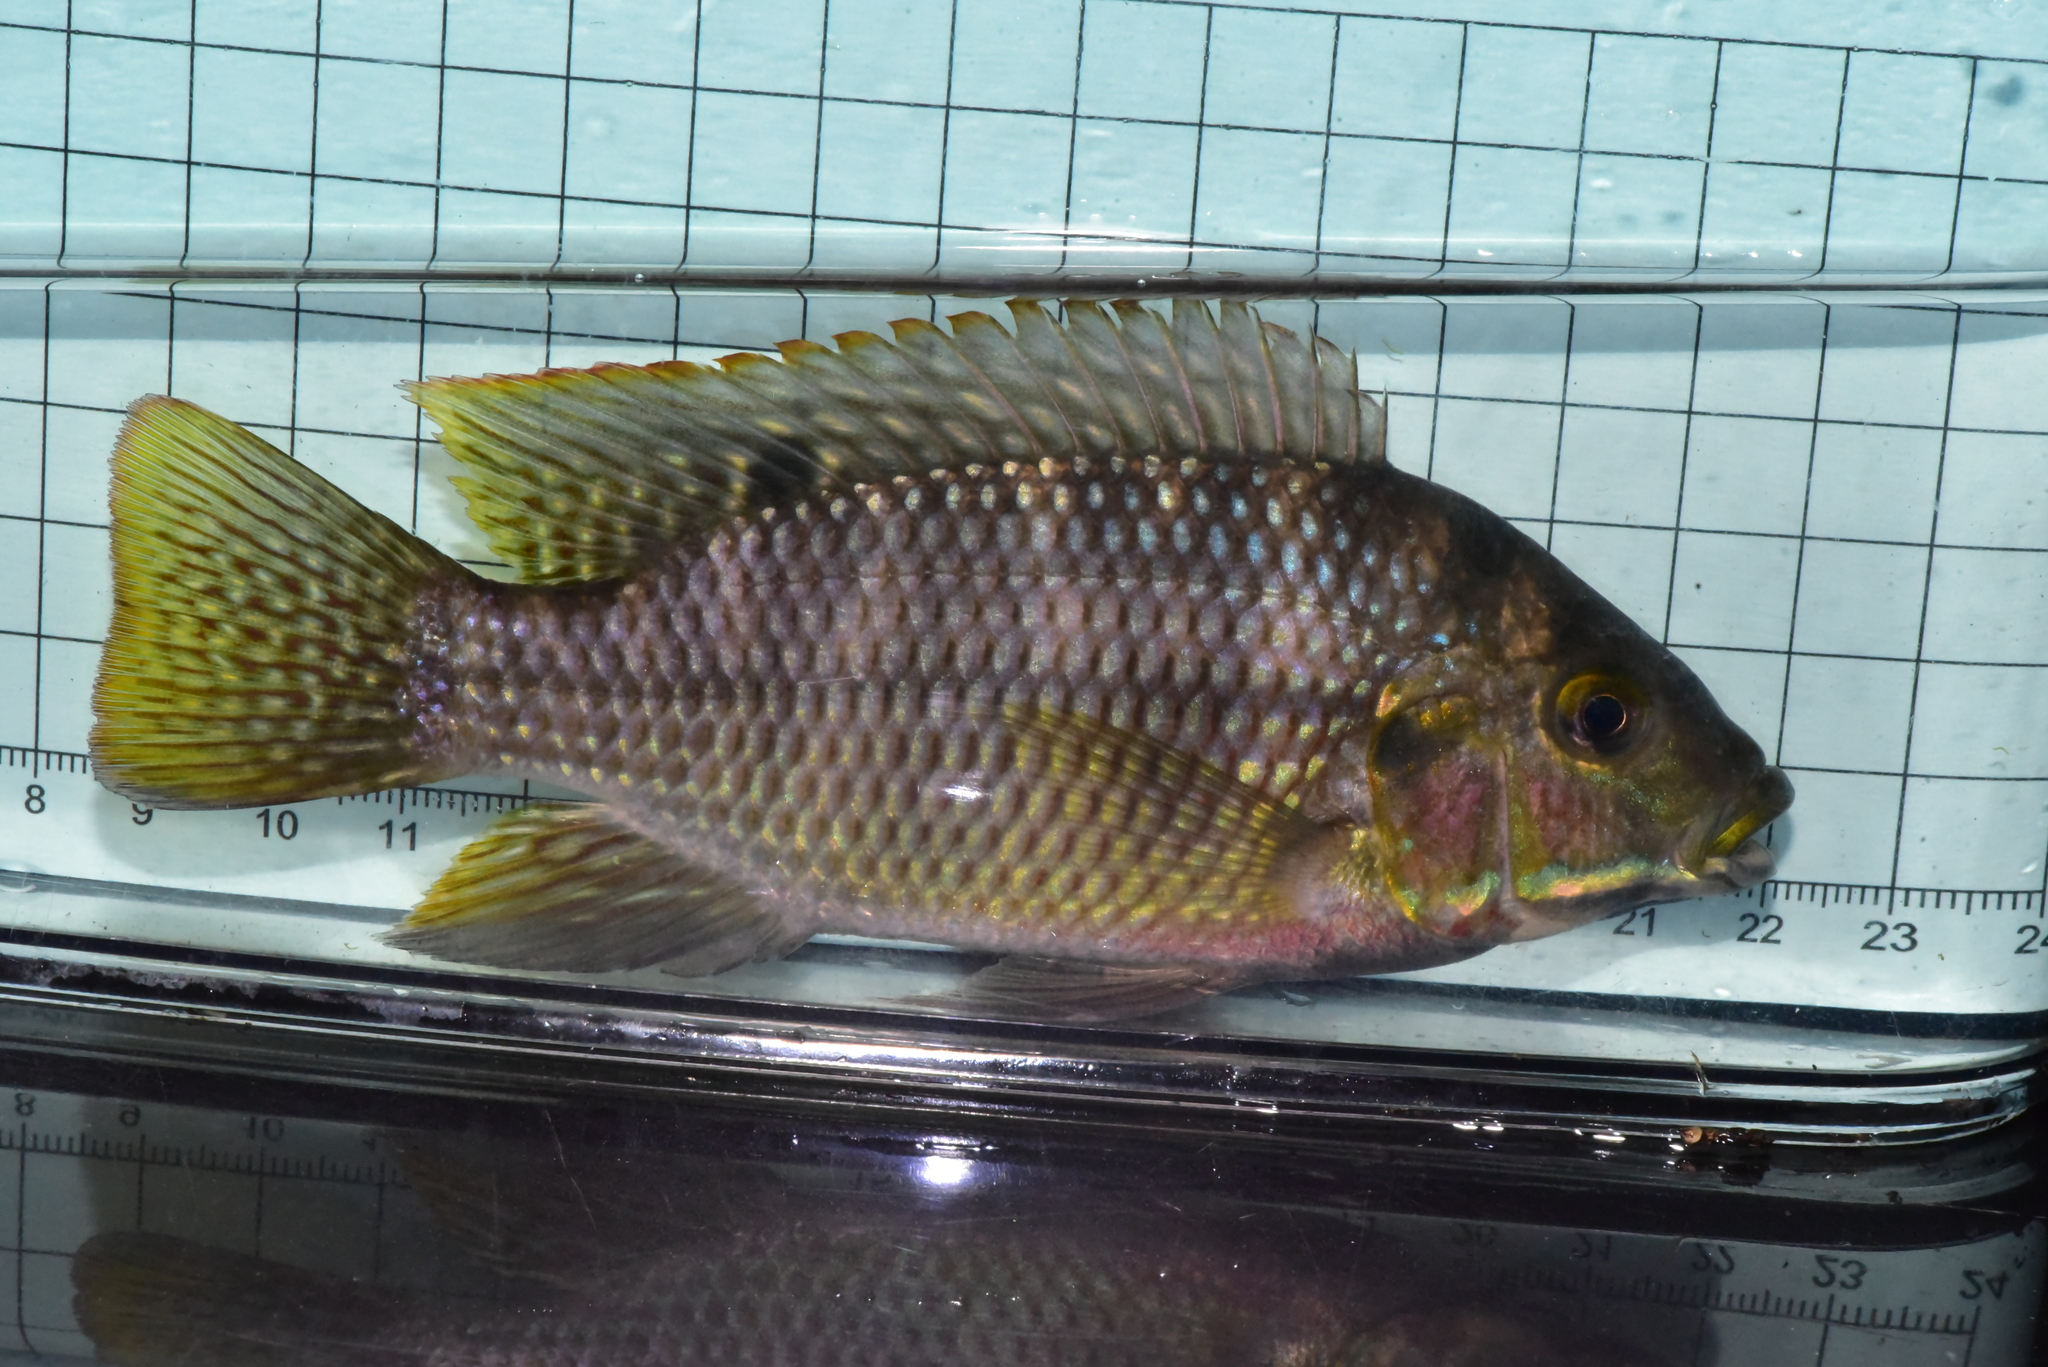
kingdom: Animalia
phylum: Chordata
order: Perciformes
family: Cichlidae
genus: Coptodon
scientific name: Coptodon zillii
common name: Redbelly tilapia
